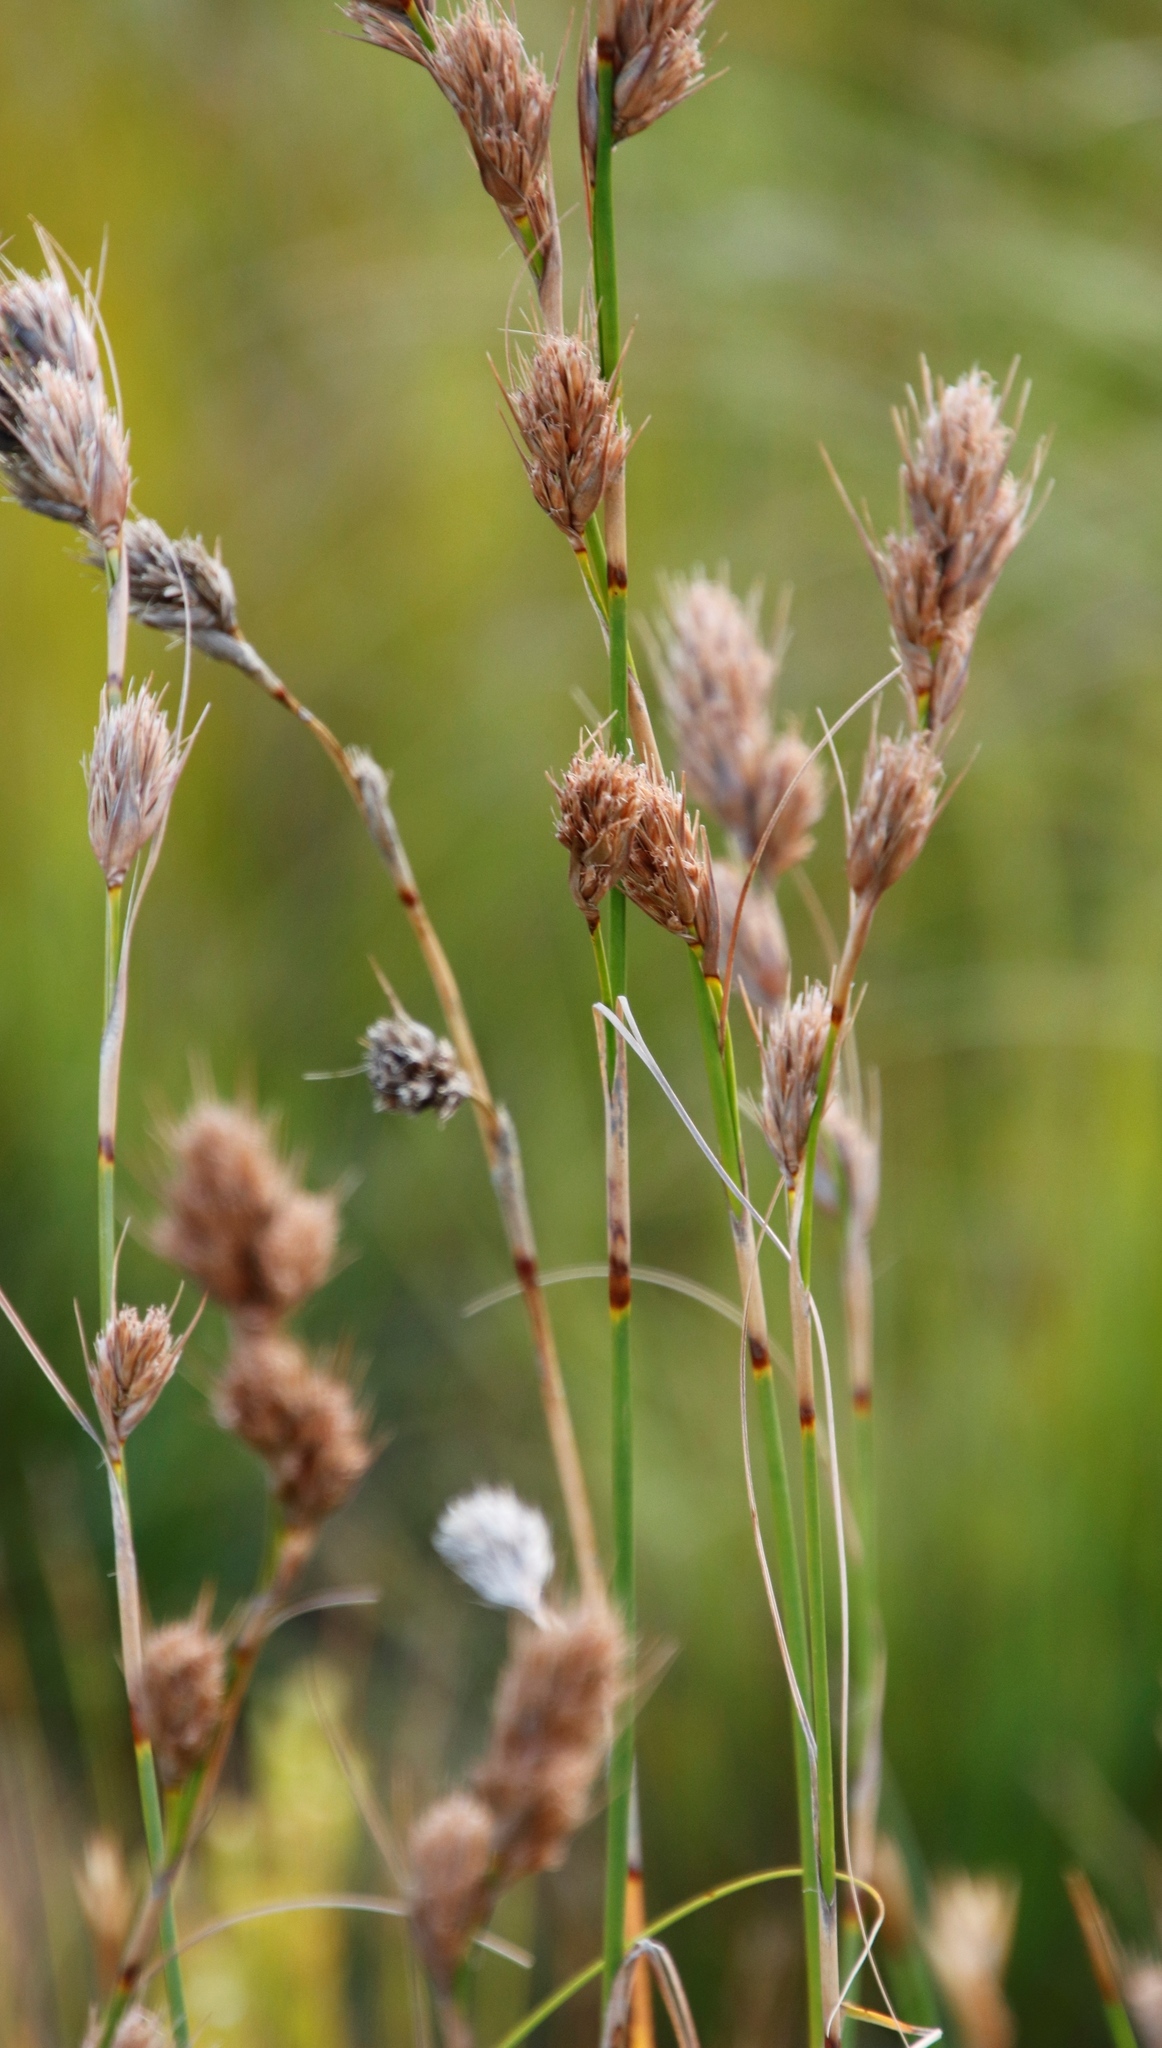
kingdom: Plantae
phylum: Tracheophyta
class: Liliopsida
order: Poales
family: Cyperaceae
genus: Tetraria
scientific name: Tetraria bromoides
